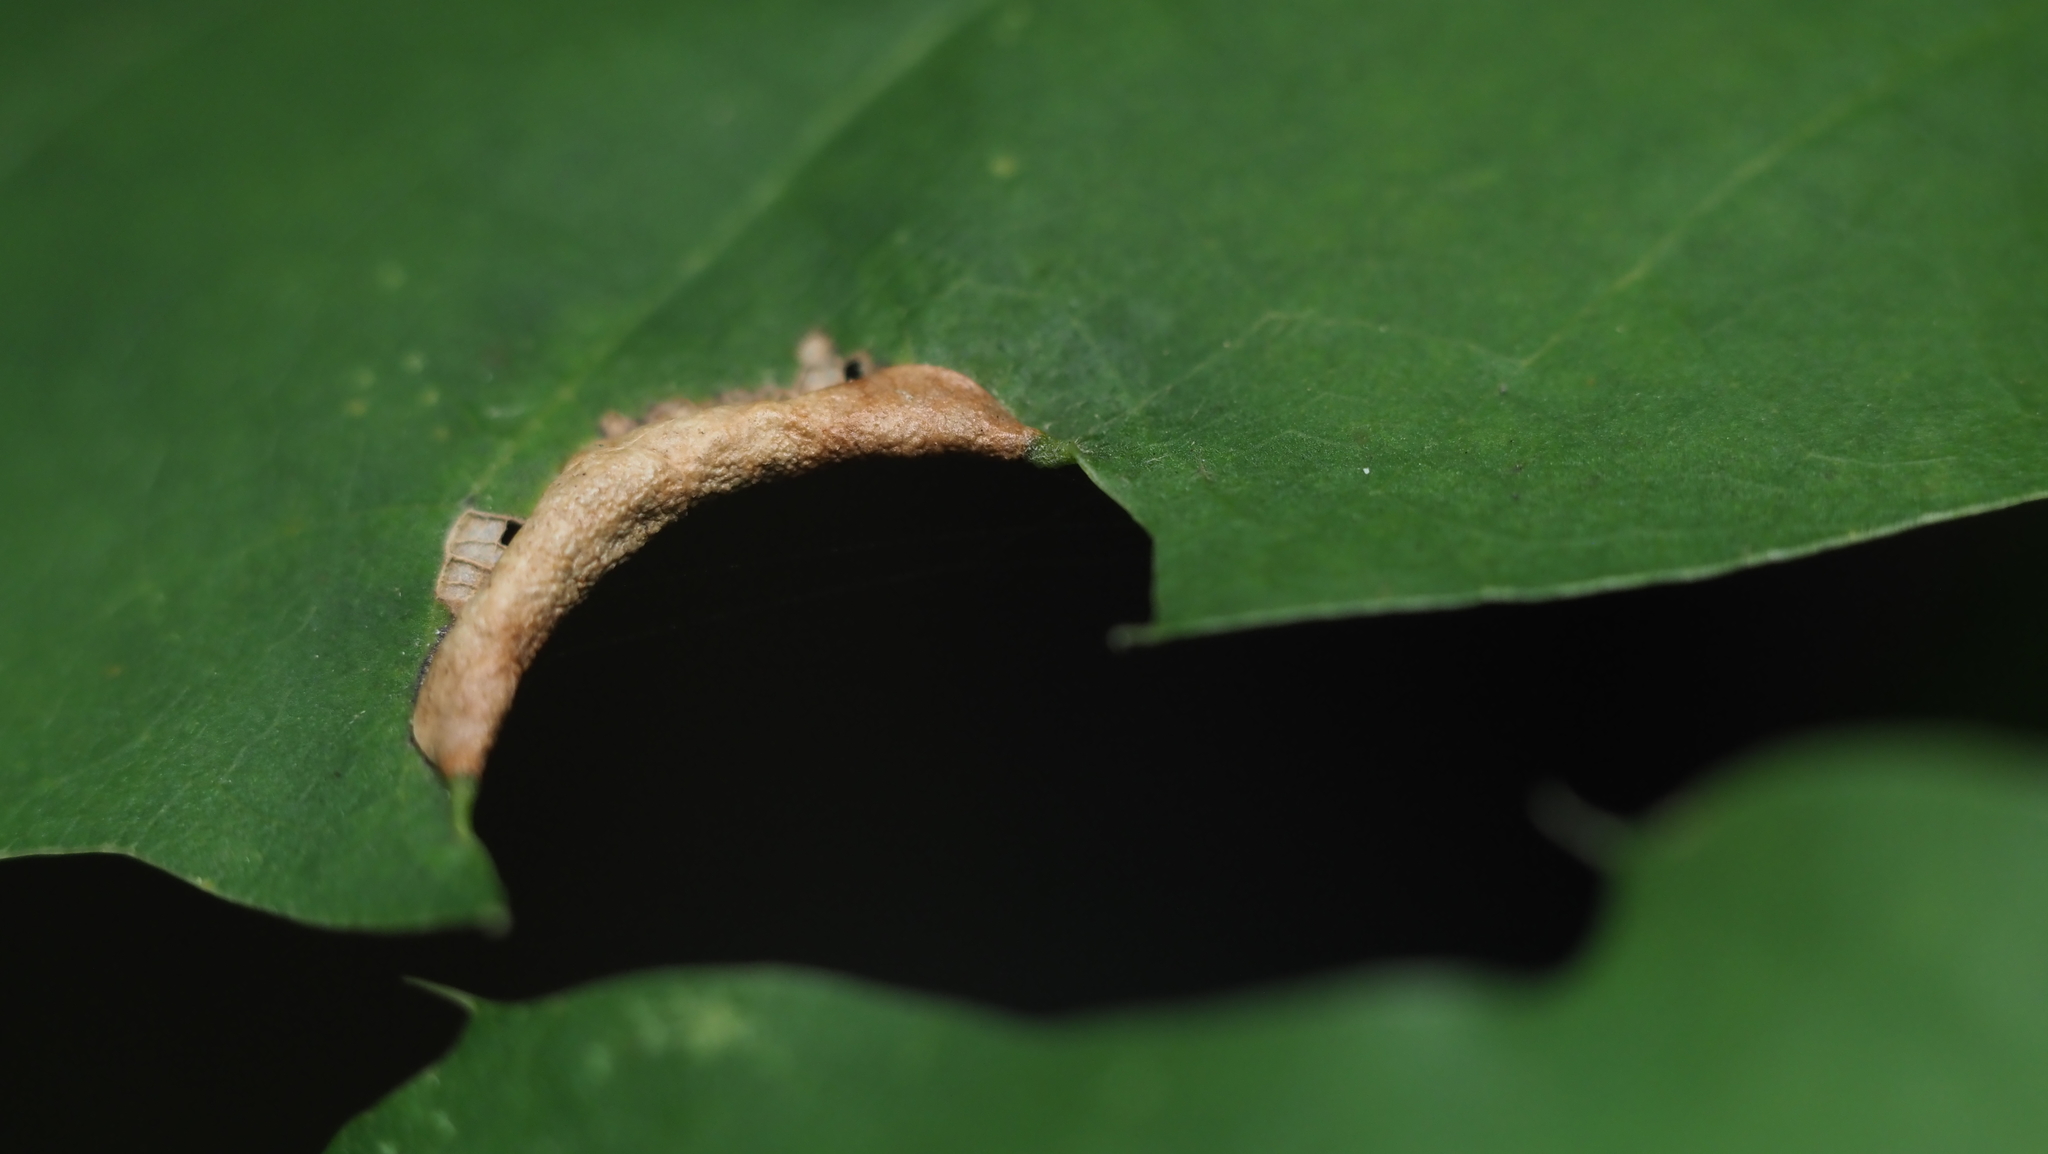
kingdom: Animalia
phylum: Arthropoda
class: Insecta
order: Diptera
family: Cecidomyiidae
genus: Macrodiplosis
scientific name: Macrodiplosis erubescens
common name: Marginal leaf fold gall midge
